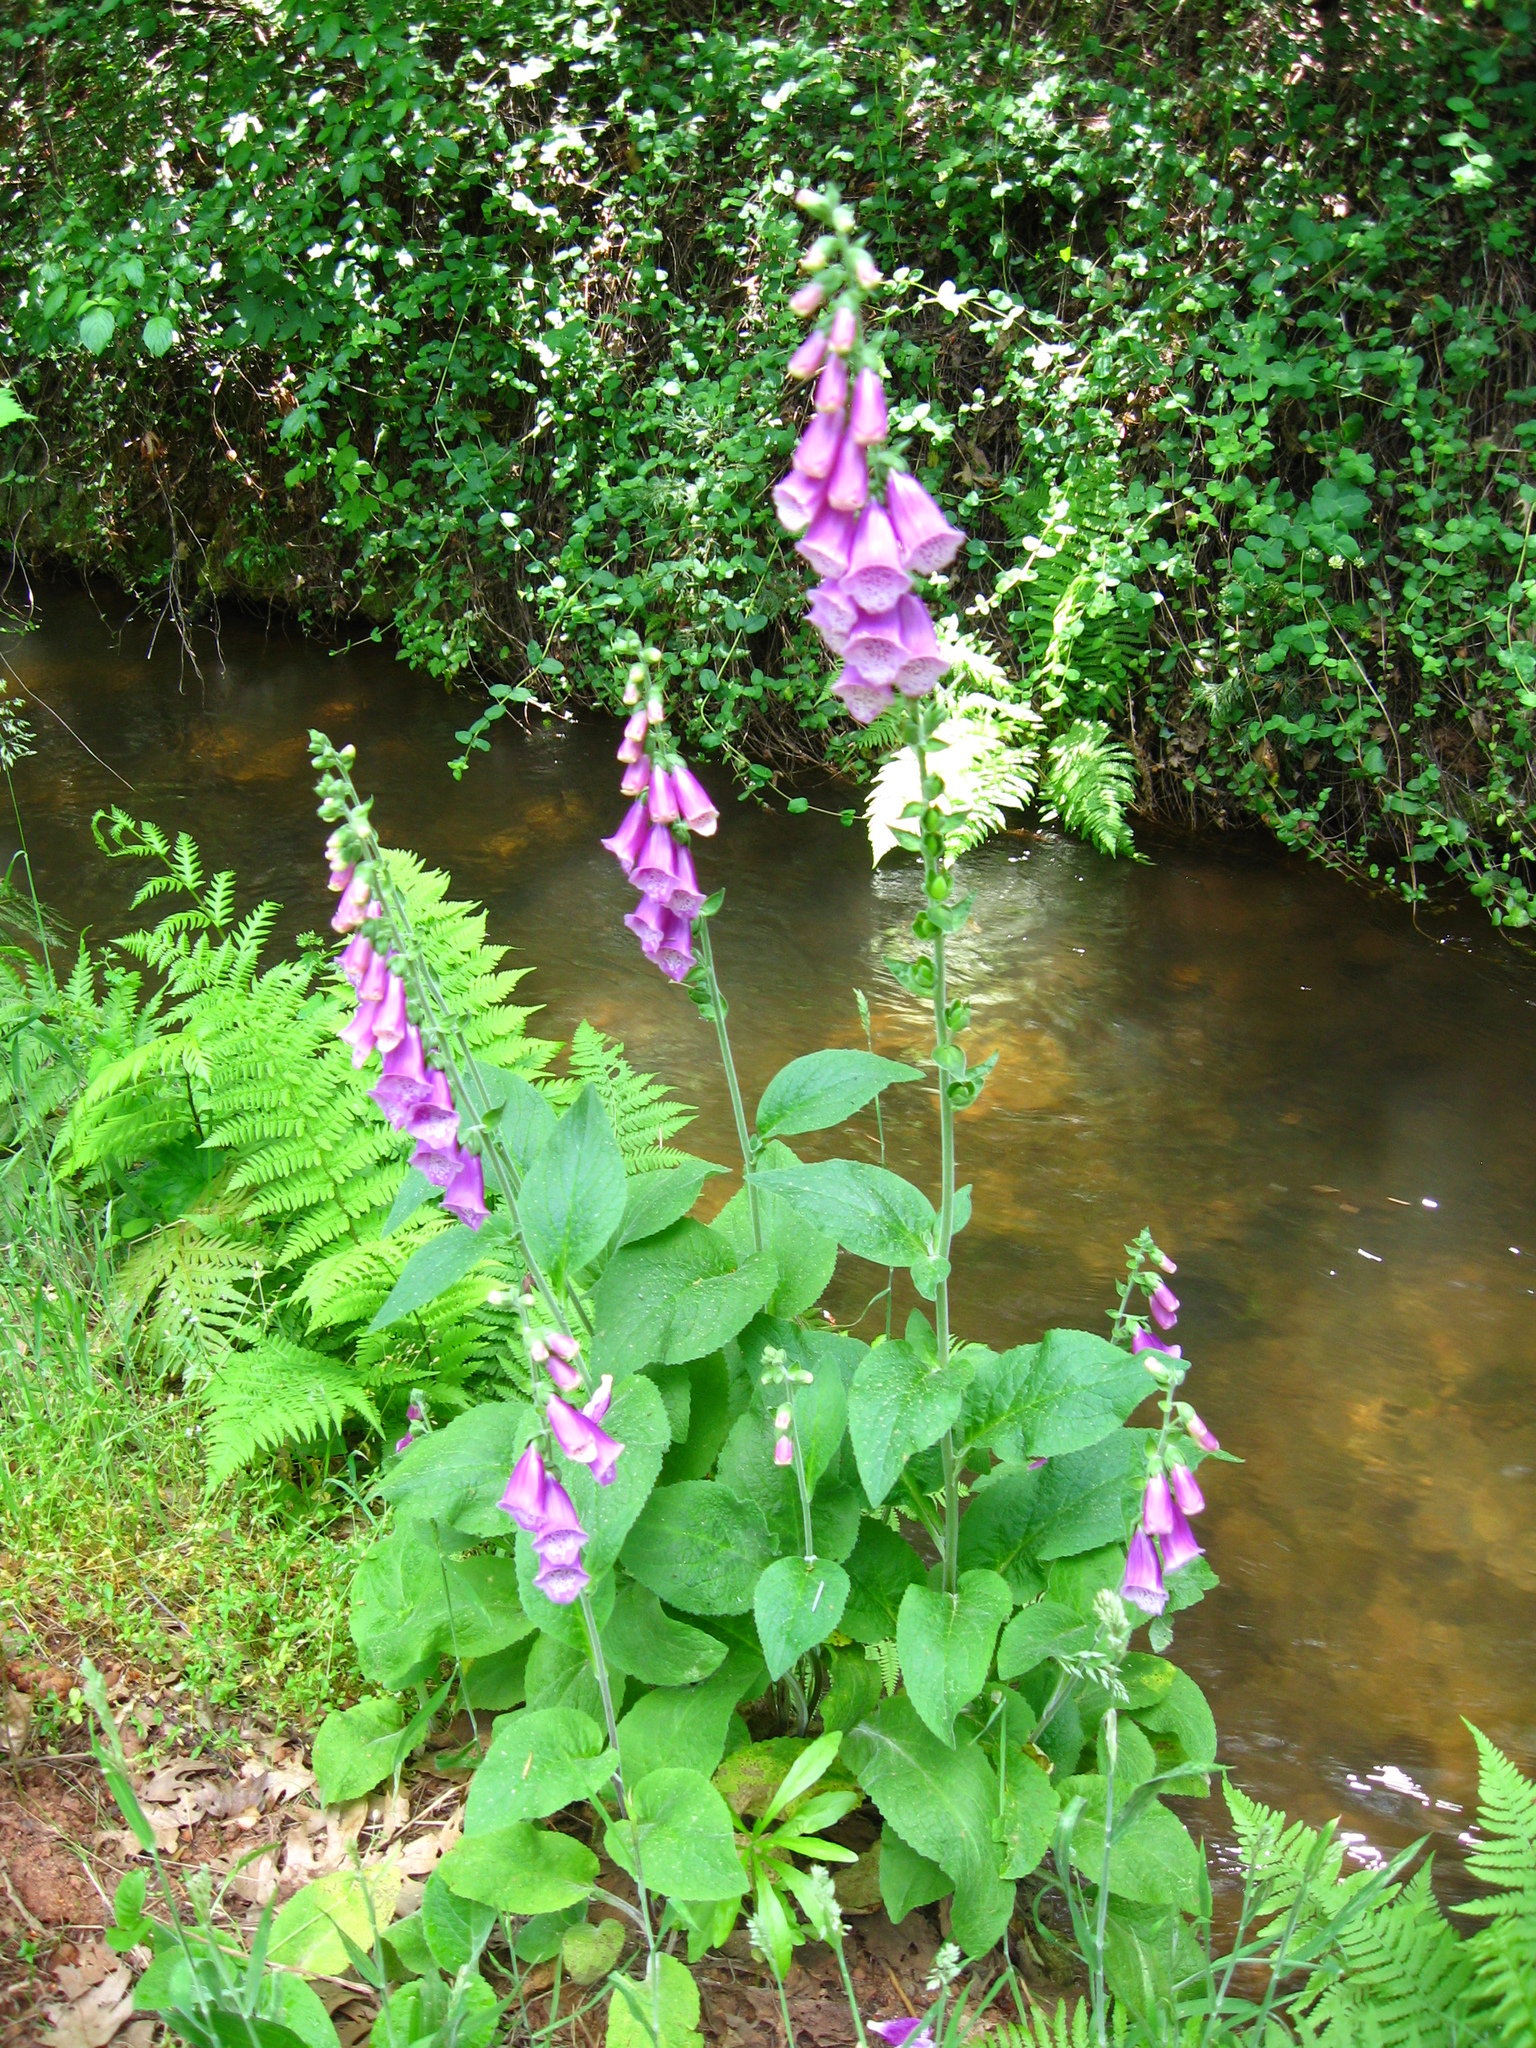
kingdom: Plantae
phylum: Tracheophyta
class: Magnoliopsida
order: Lamiales
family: Plantaginaceae
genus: Digitalis
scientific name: Digitalis purpurea
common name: Foxglove
